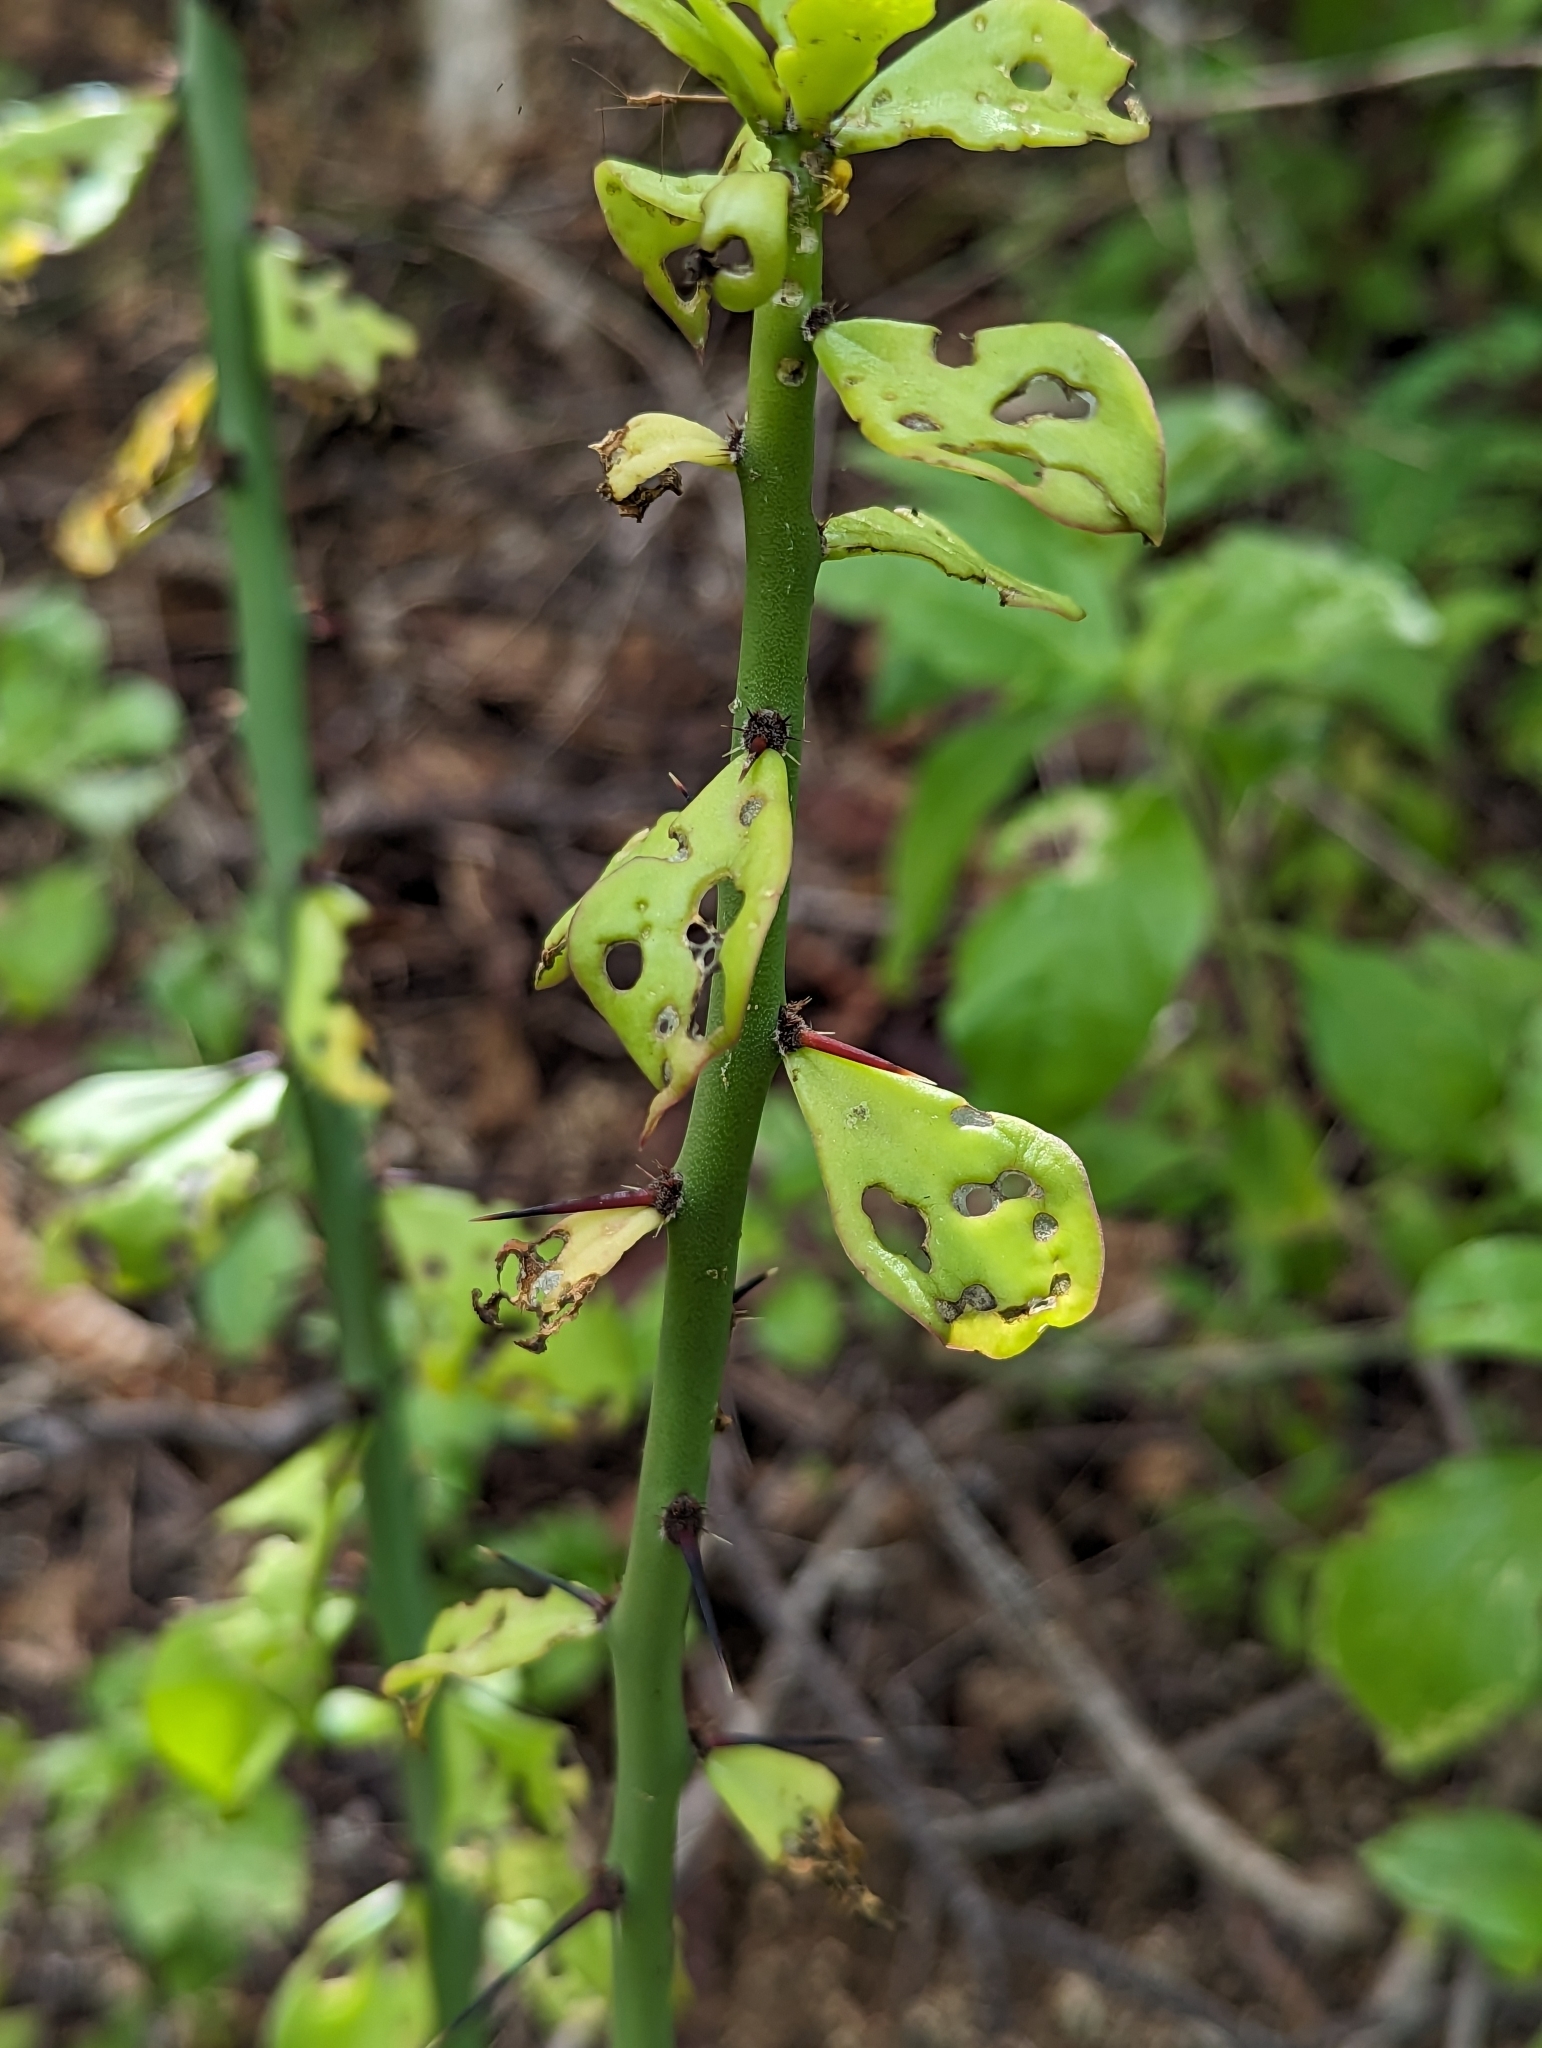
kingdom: Plantae
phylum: Tracheophyta
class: Magnoliopsida
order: Caryophyllales
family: Cactaceae
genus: Pereskiopsis
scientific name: Pereskiopsis porteri
